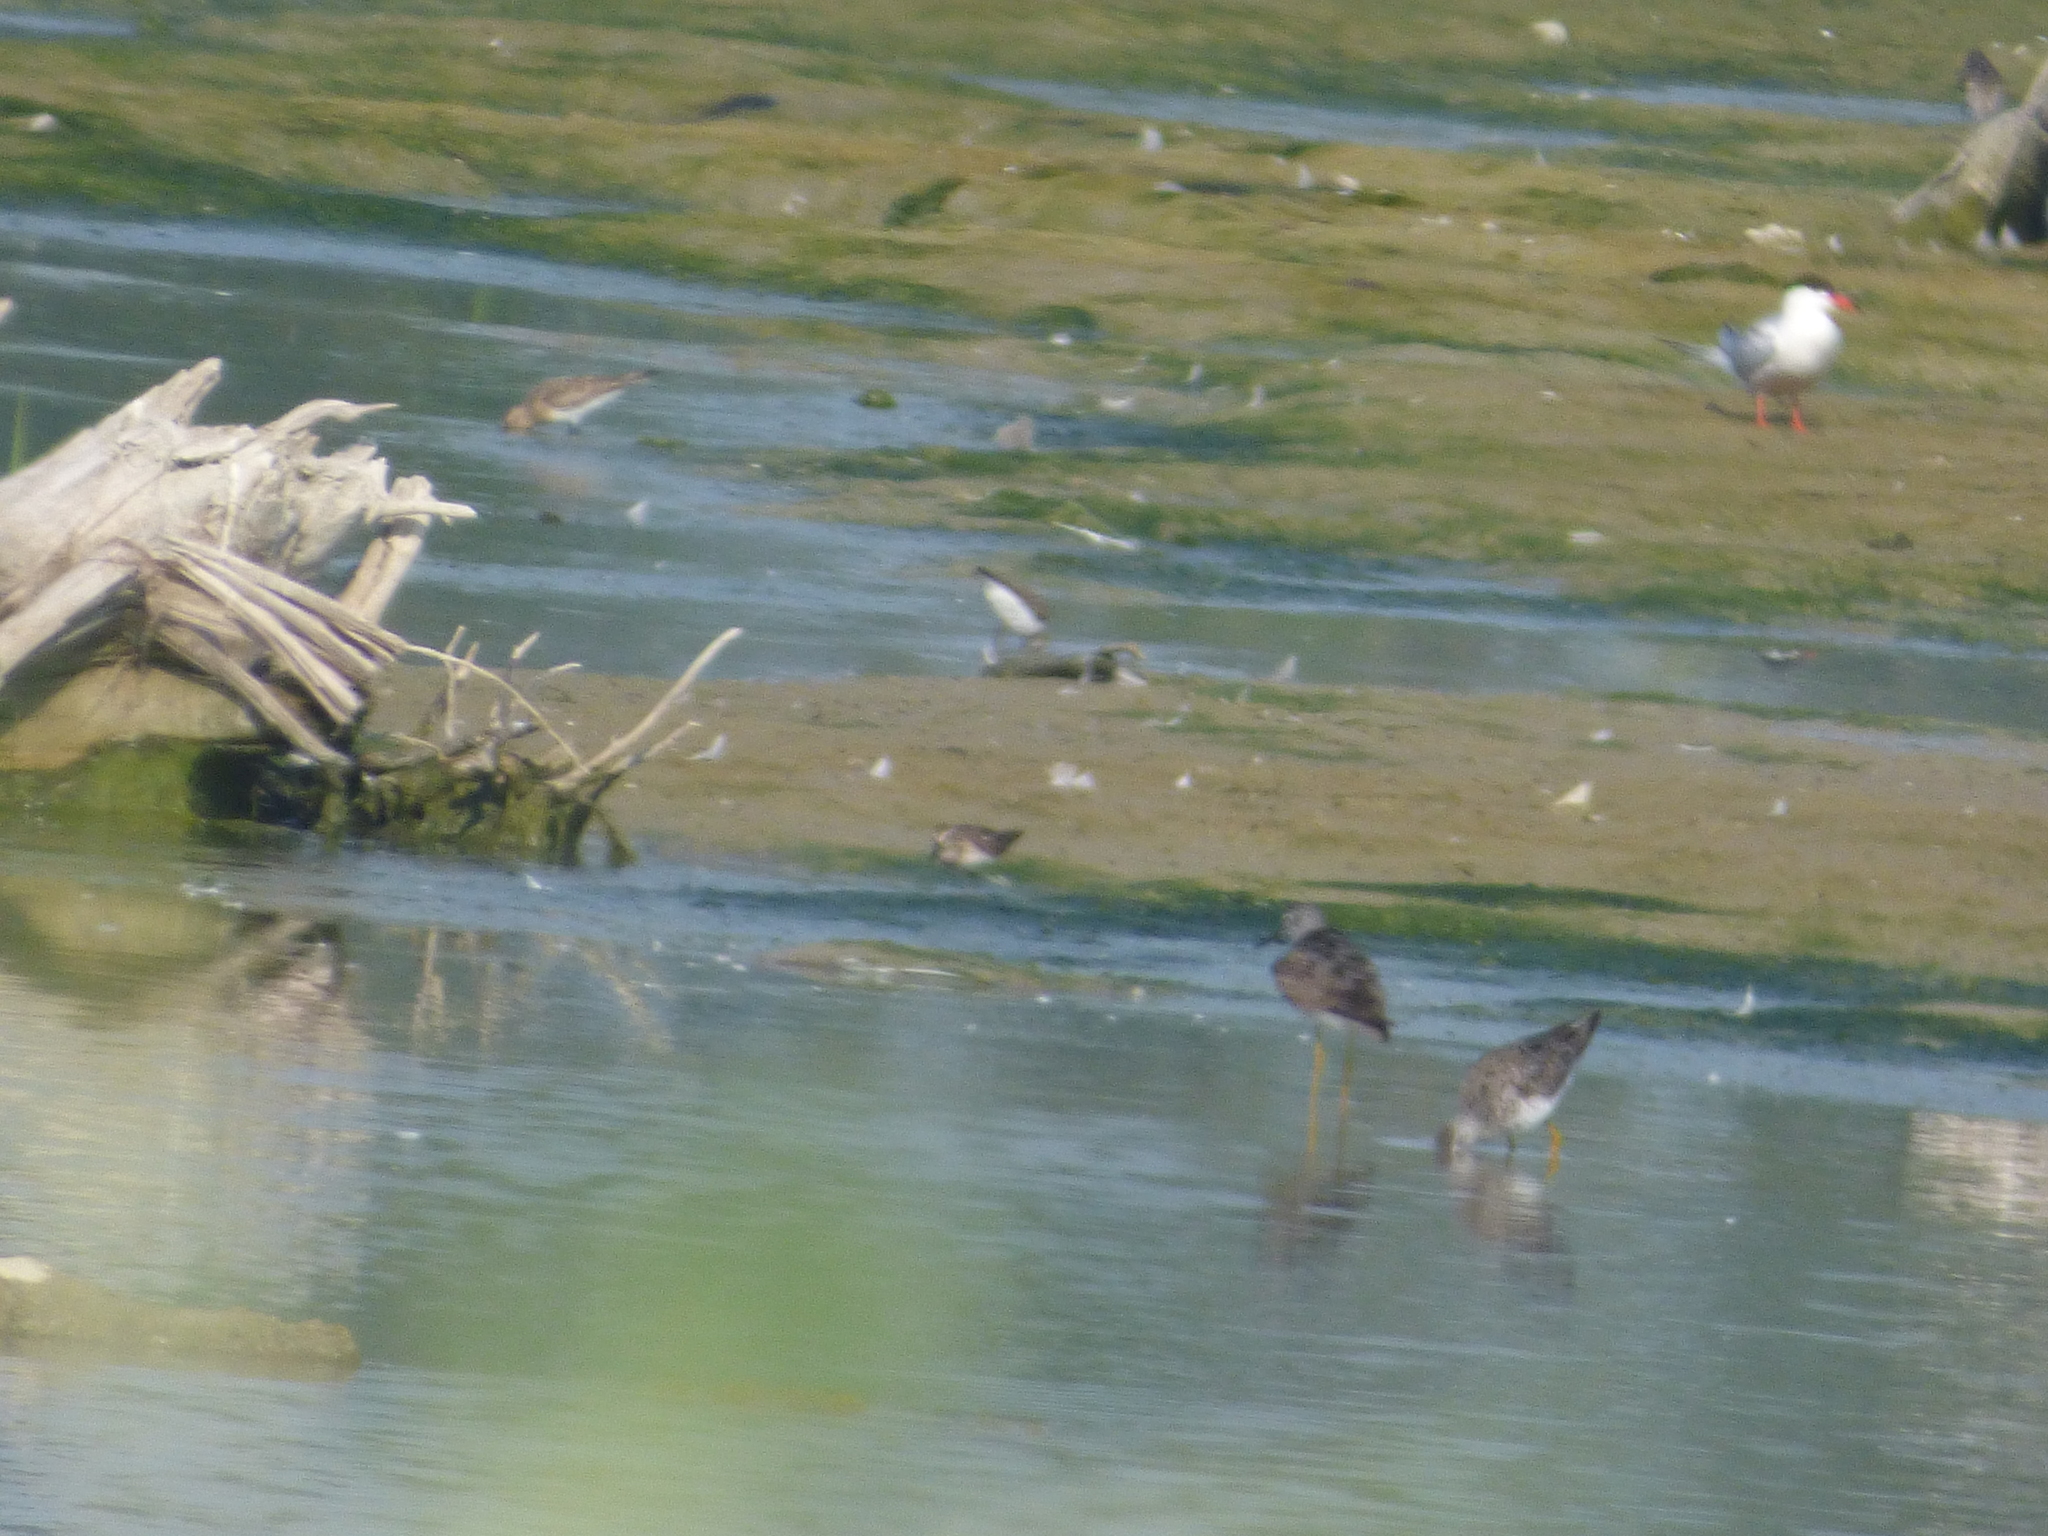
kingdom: Animalia
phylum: Chordata
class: Aves
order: Charadriiformes
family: Scolopacidae
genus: Tringa
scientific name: Tringa flavipes
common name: Lesser yellowlegs
